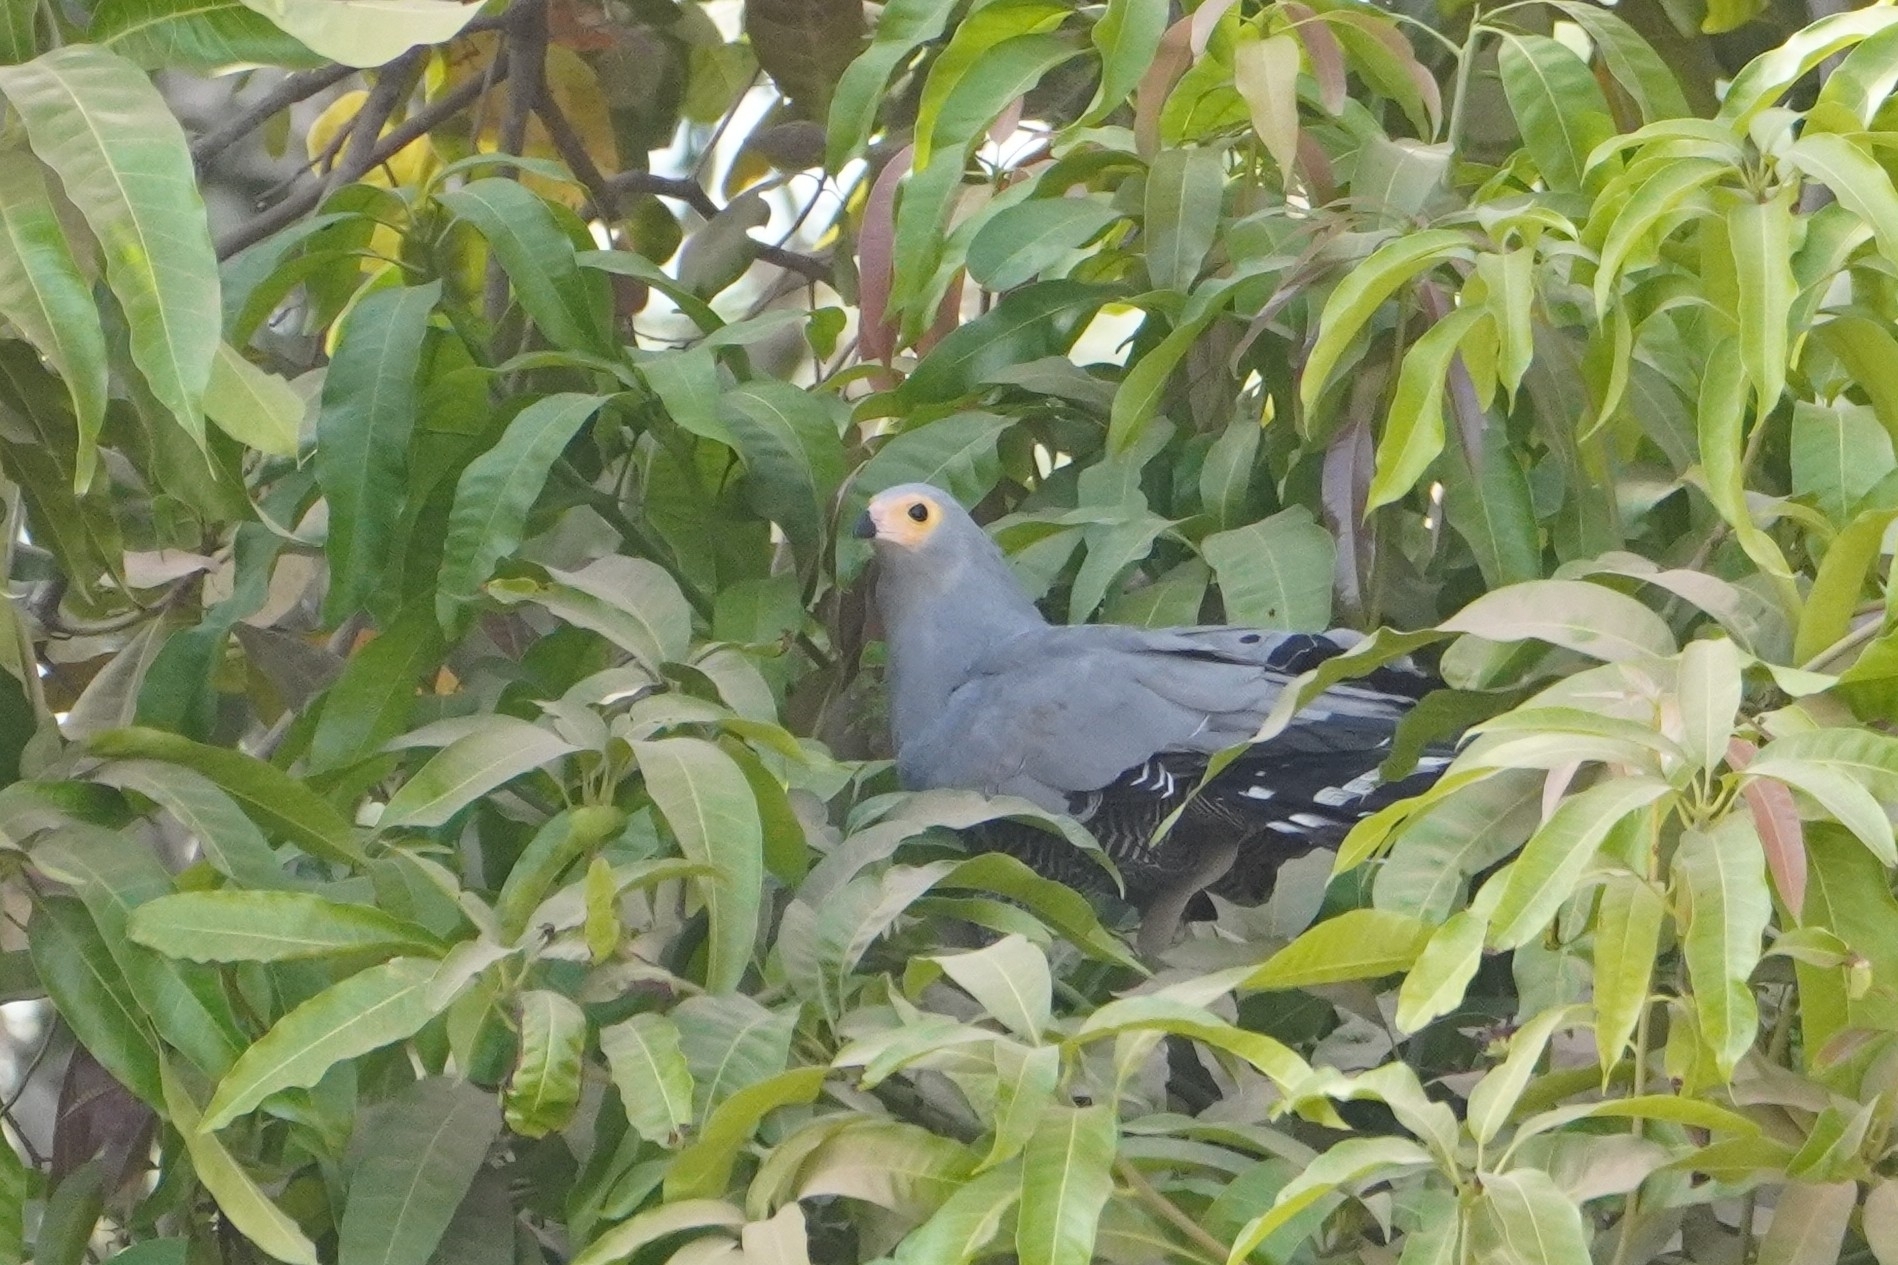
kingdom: Animalia
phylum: Chordata
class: Aves
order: Accipitriformes
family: Accipitridae
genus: Polyboroides
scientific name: Polyboroides typus
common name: African harrier-hawk
